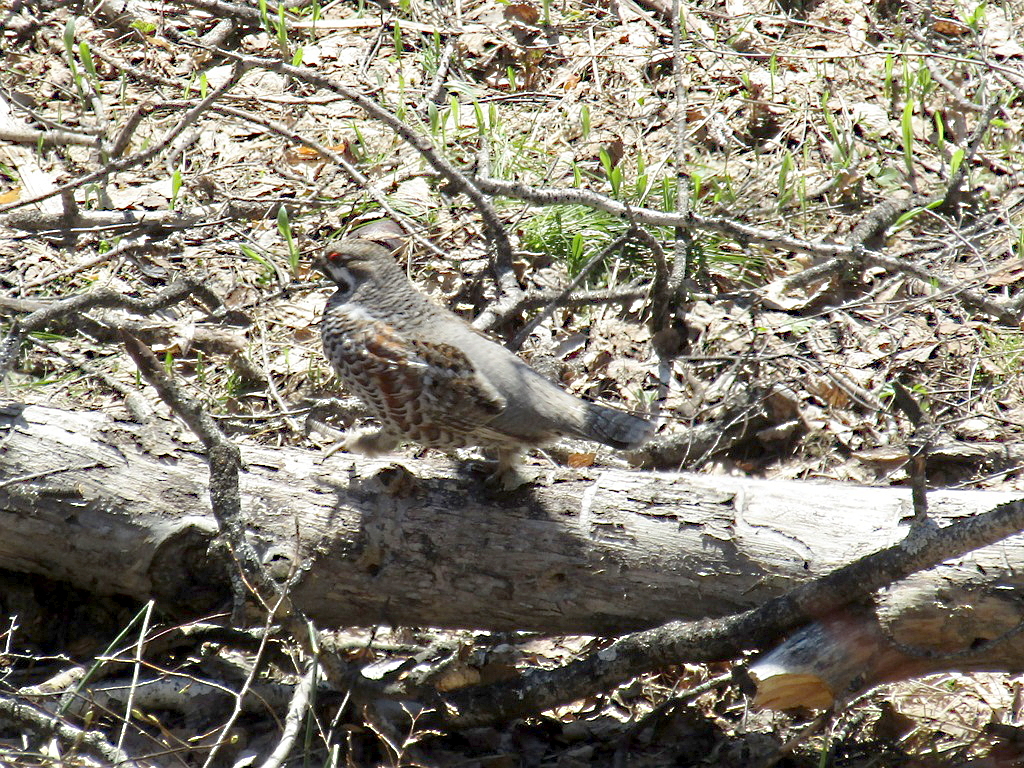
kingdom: Animalia
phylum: Chordata
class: Aves
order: Galliformes
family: Phasianidae
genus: Tetrastes
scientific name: Tetrastes bonasia
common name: Hazel grouse
